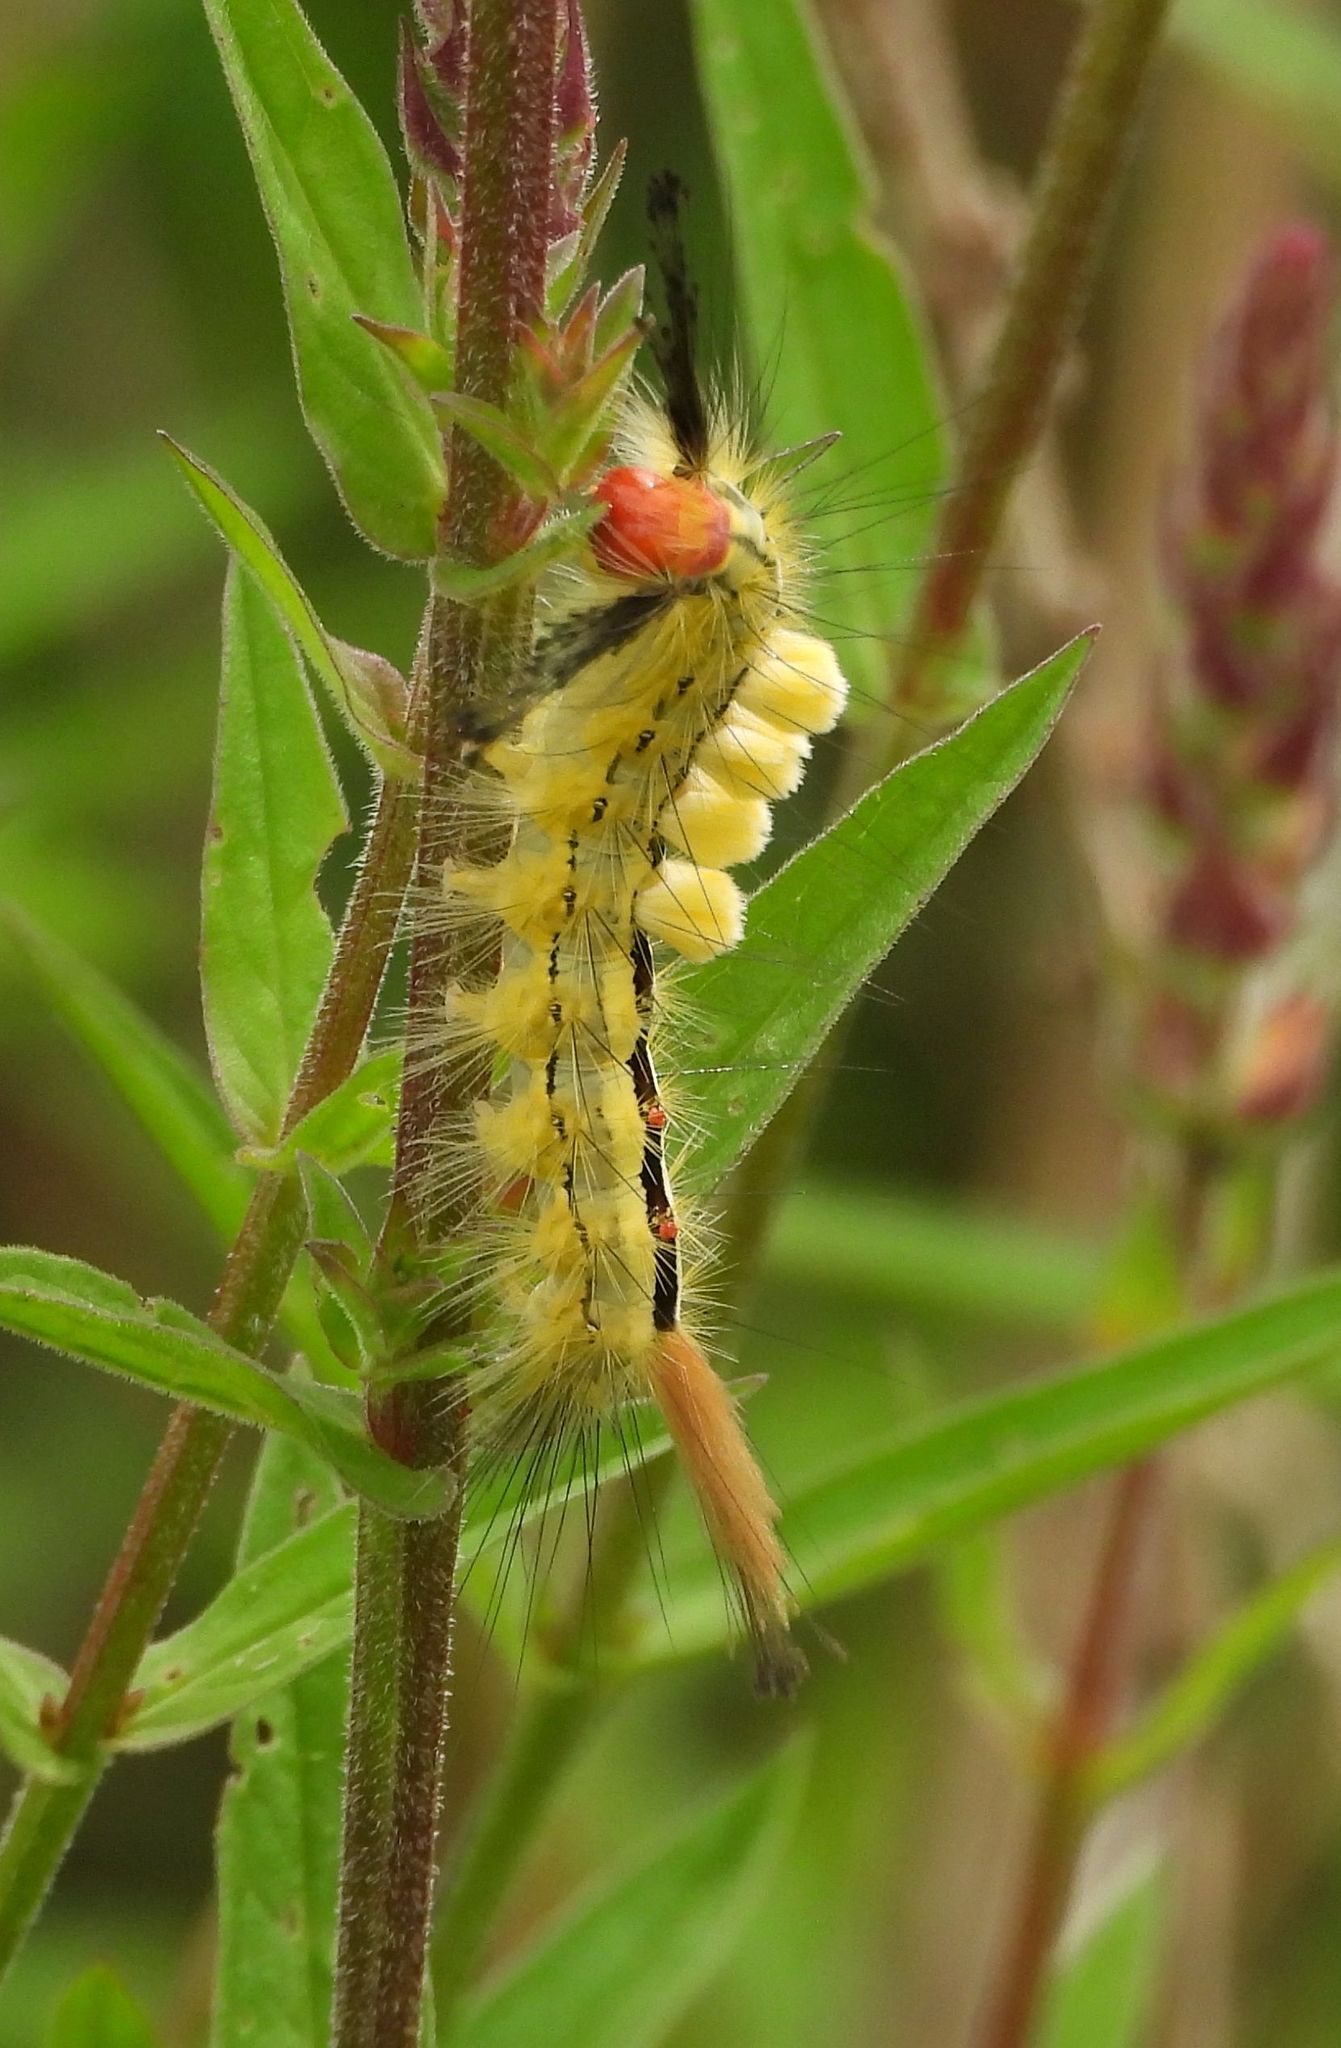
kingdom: Animalia
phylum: Arthropoda
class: Insecta
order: Lepidoptera
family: Erebidae
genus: Orgyia
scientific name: Orgyia leucostigma
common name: White-marked tussock moth
